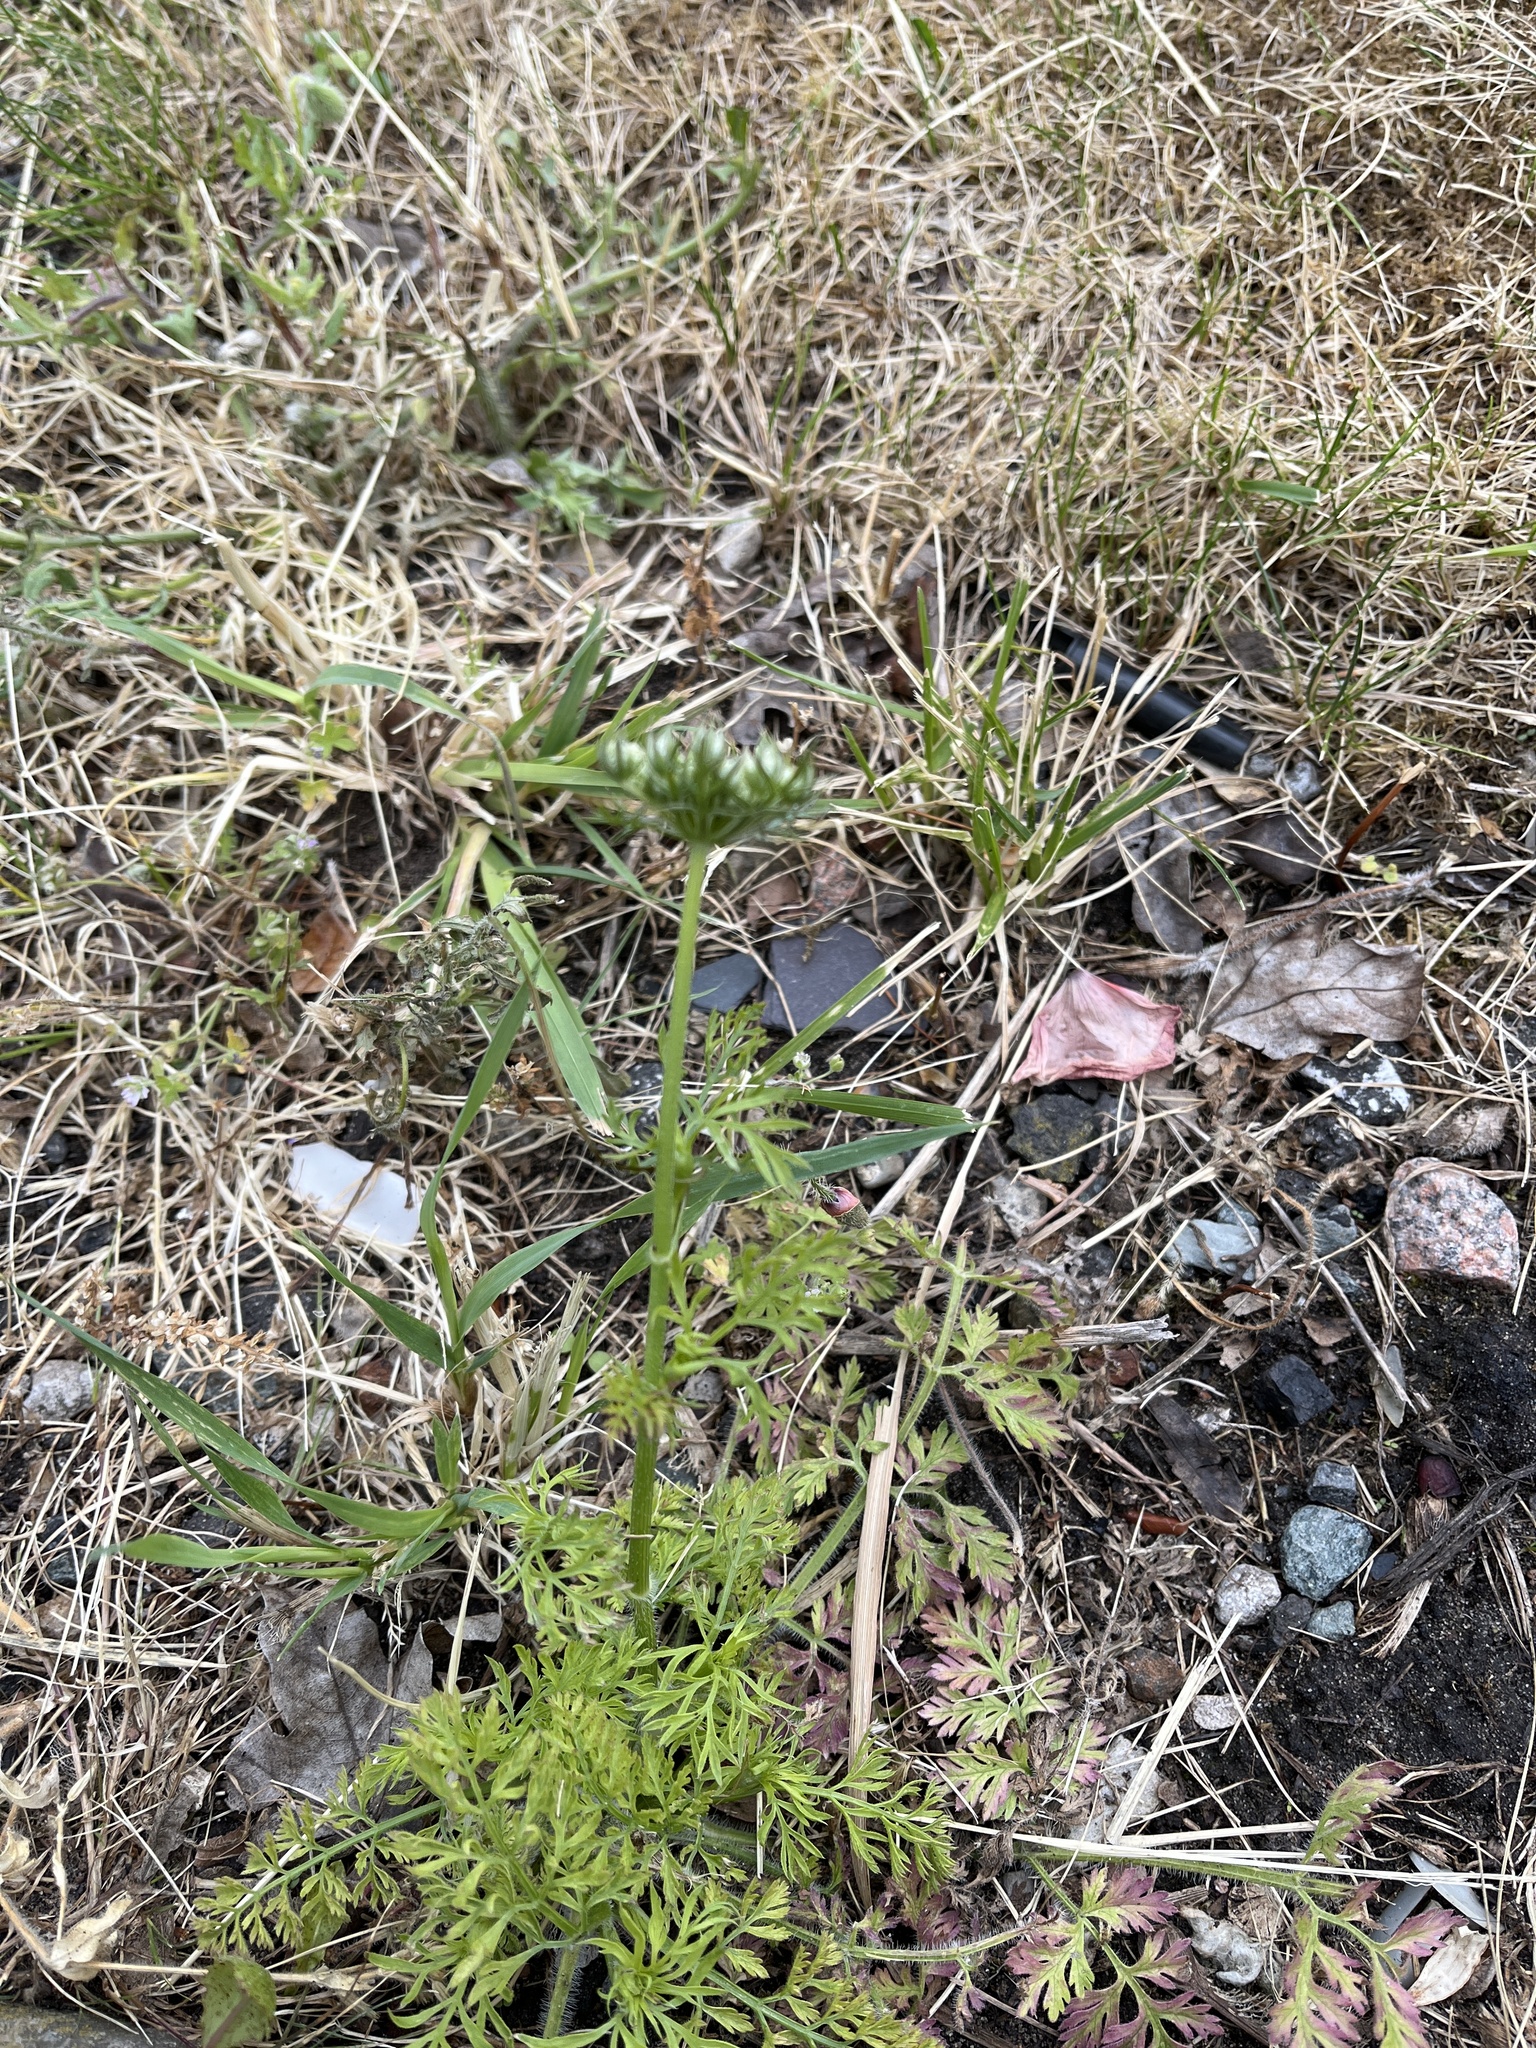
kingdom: Plantae
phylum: Tracheophyta
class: Magnoliopsida
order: Apiales
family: Apiaceae
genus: Daucus
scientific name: Daucus carota
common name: Wild carrot
